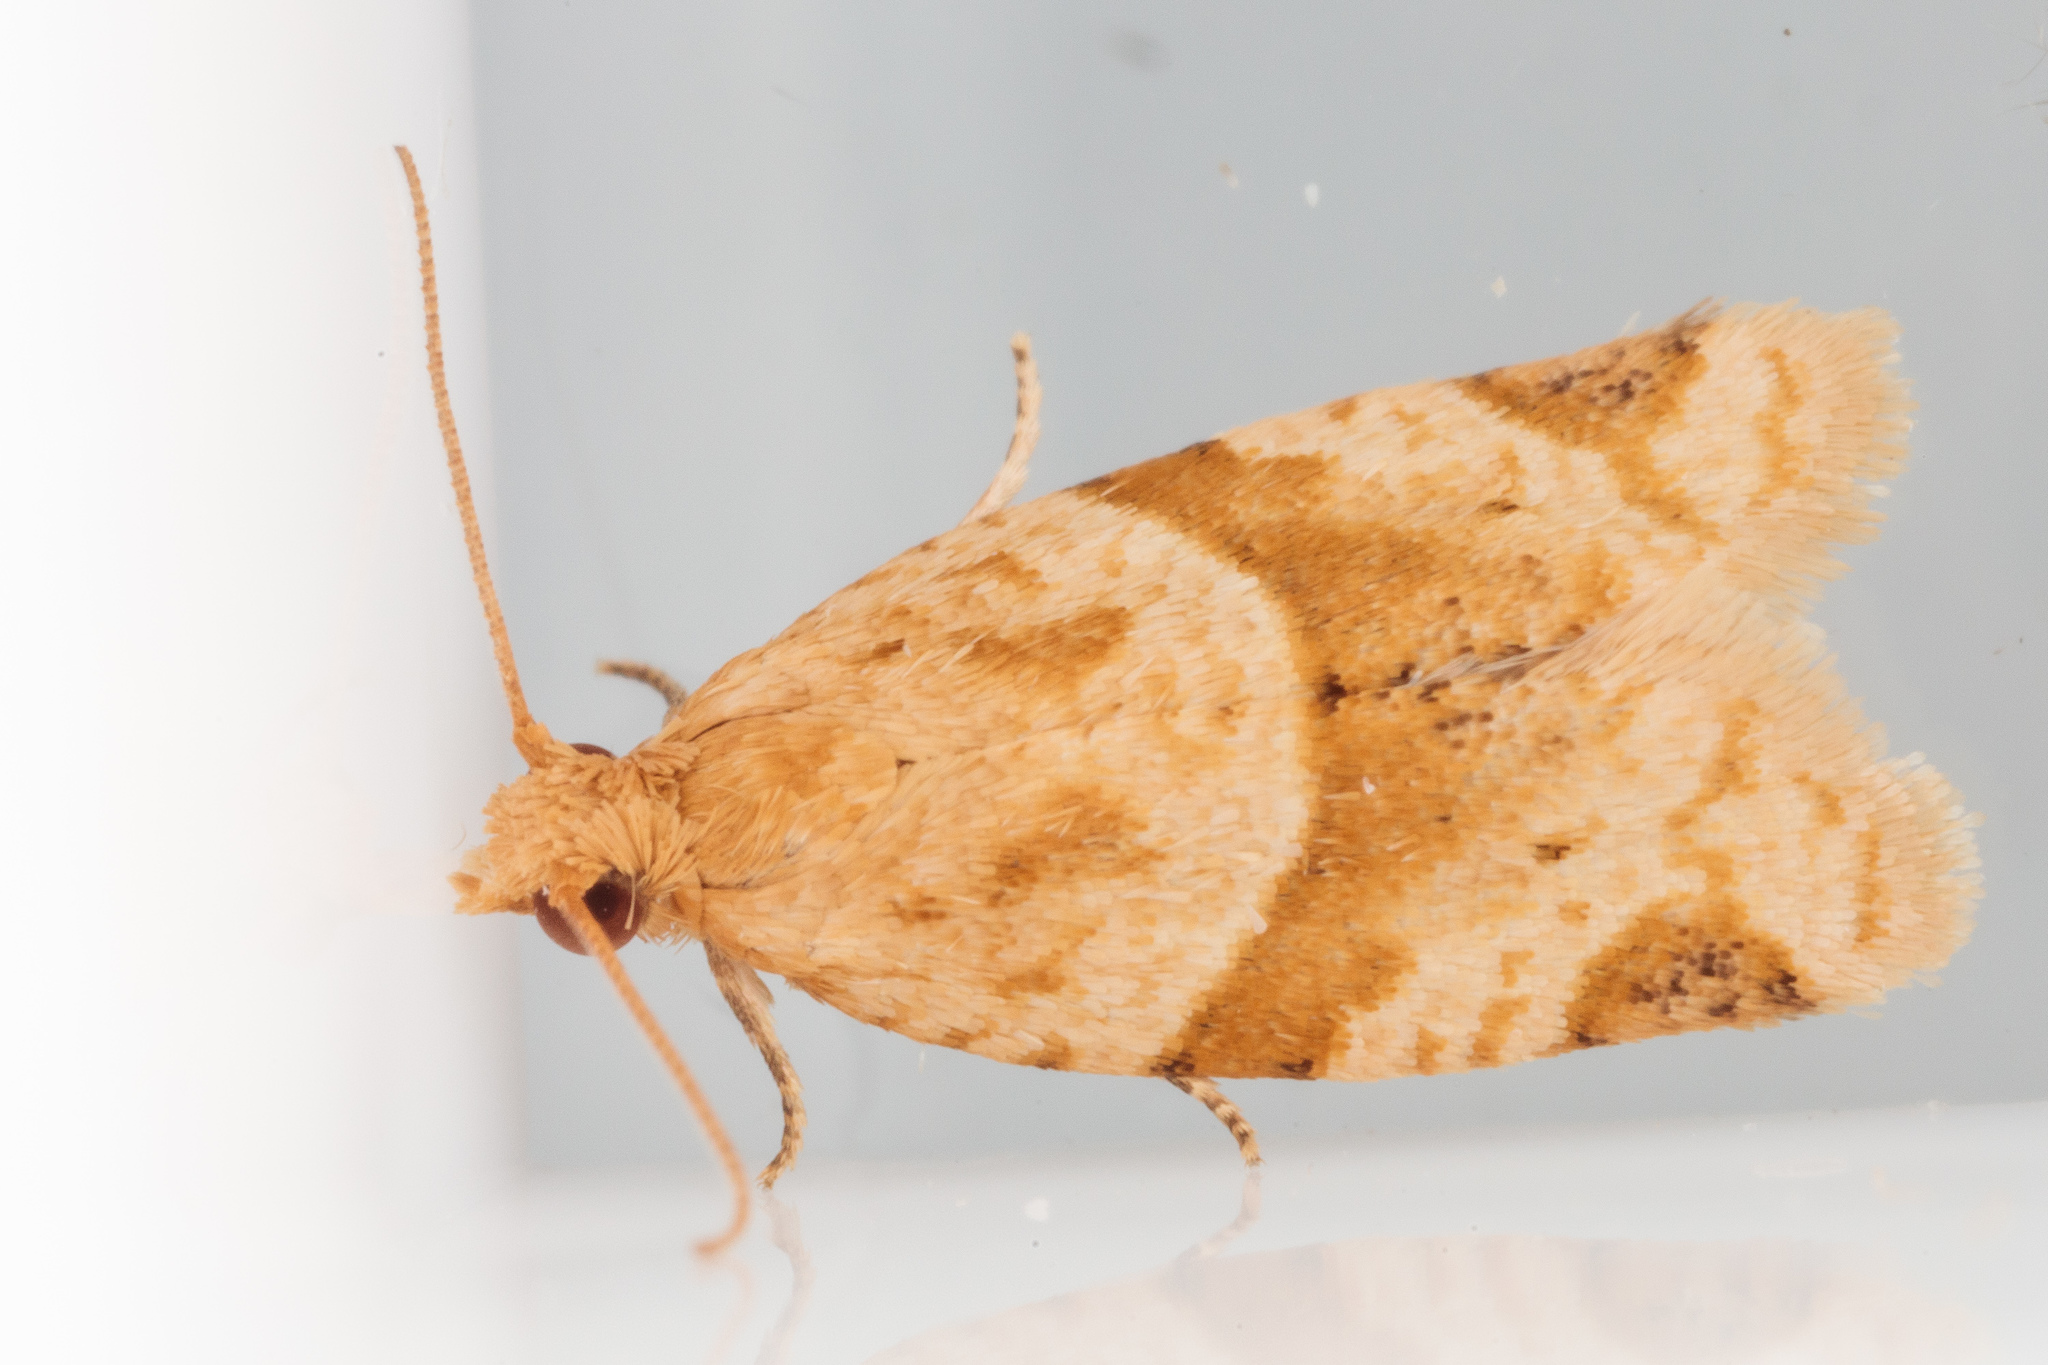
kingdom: Animalia
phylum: Arthropoda
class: Insecta
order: Lepidoptera
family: Tortricidae
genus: Clepsis
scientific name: Clepsis peritana
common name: Garden tortrix
